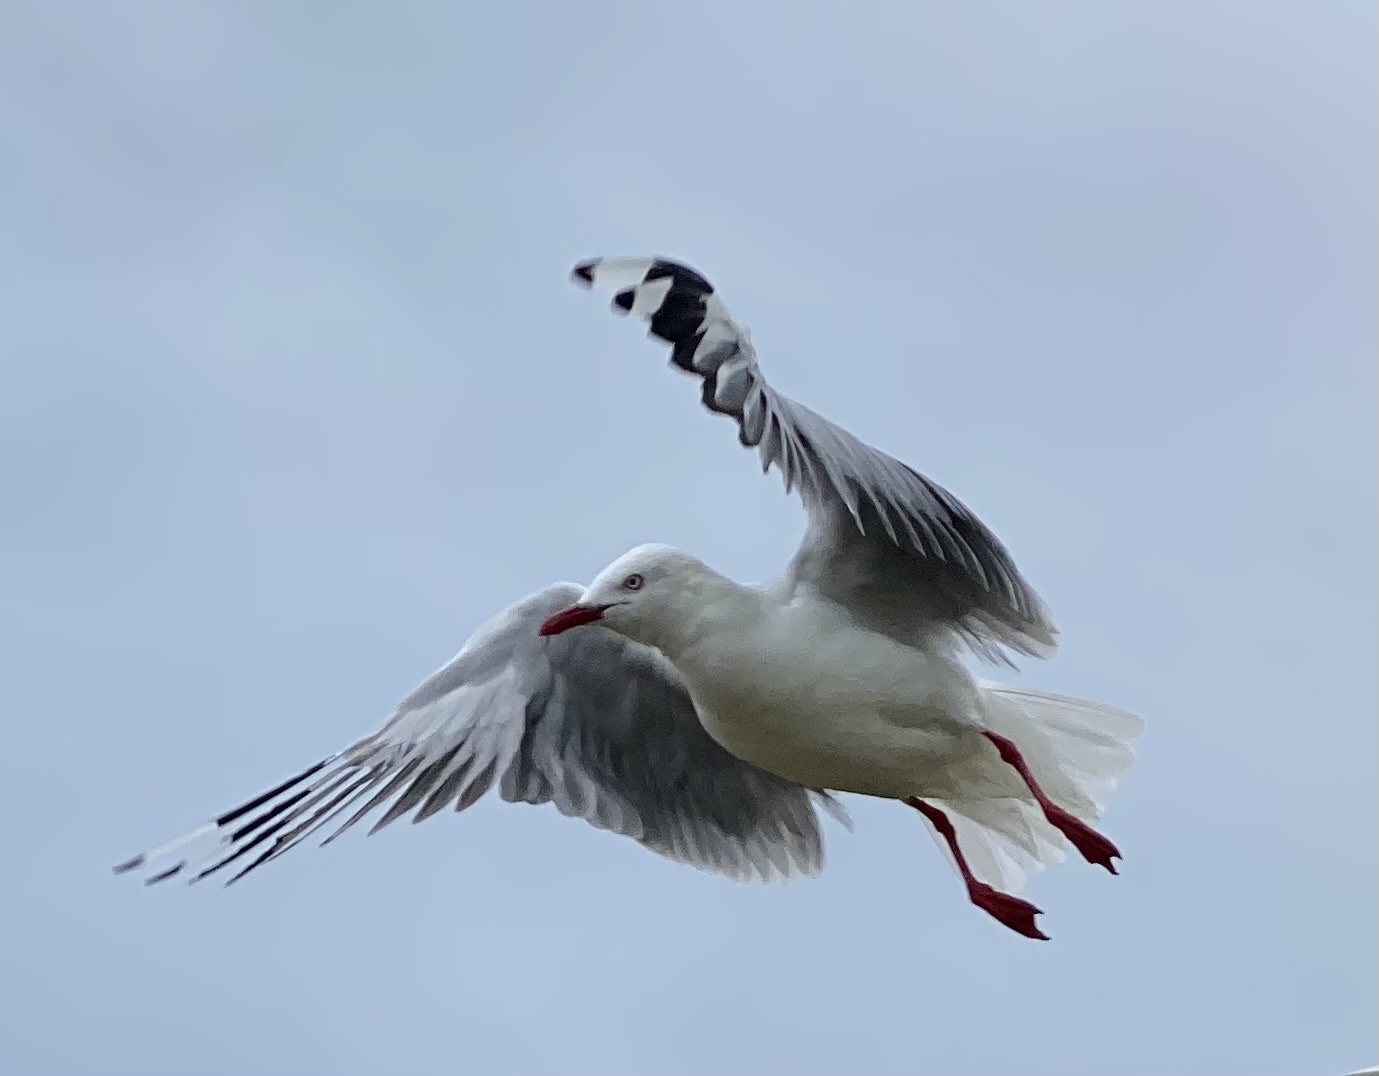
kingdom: Animalia
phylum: Chordata
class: Aves
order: Charadriiformes
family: Laridae
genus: Chroicocephalus
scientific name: Chroicocephalus novaehollandiae
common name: Silver gull
